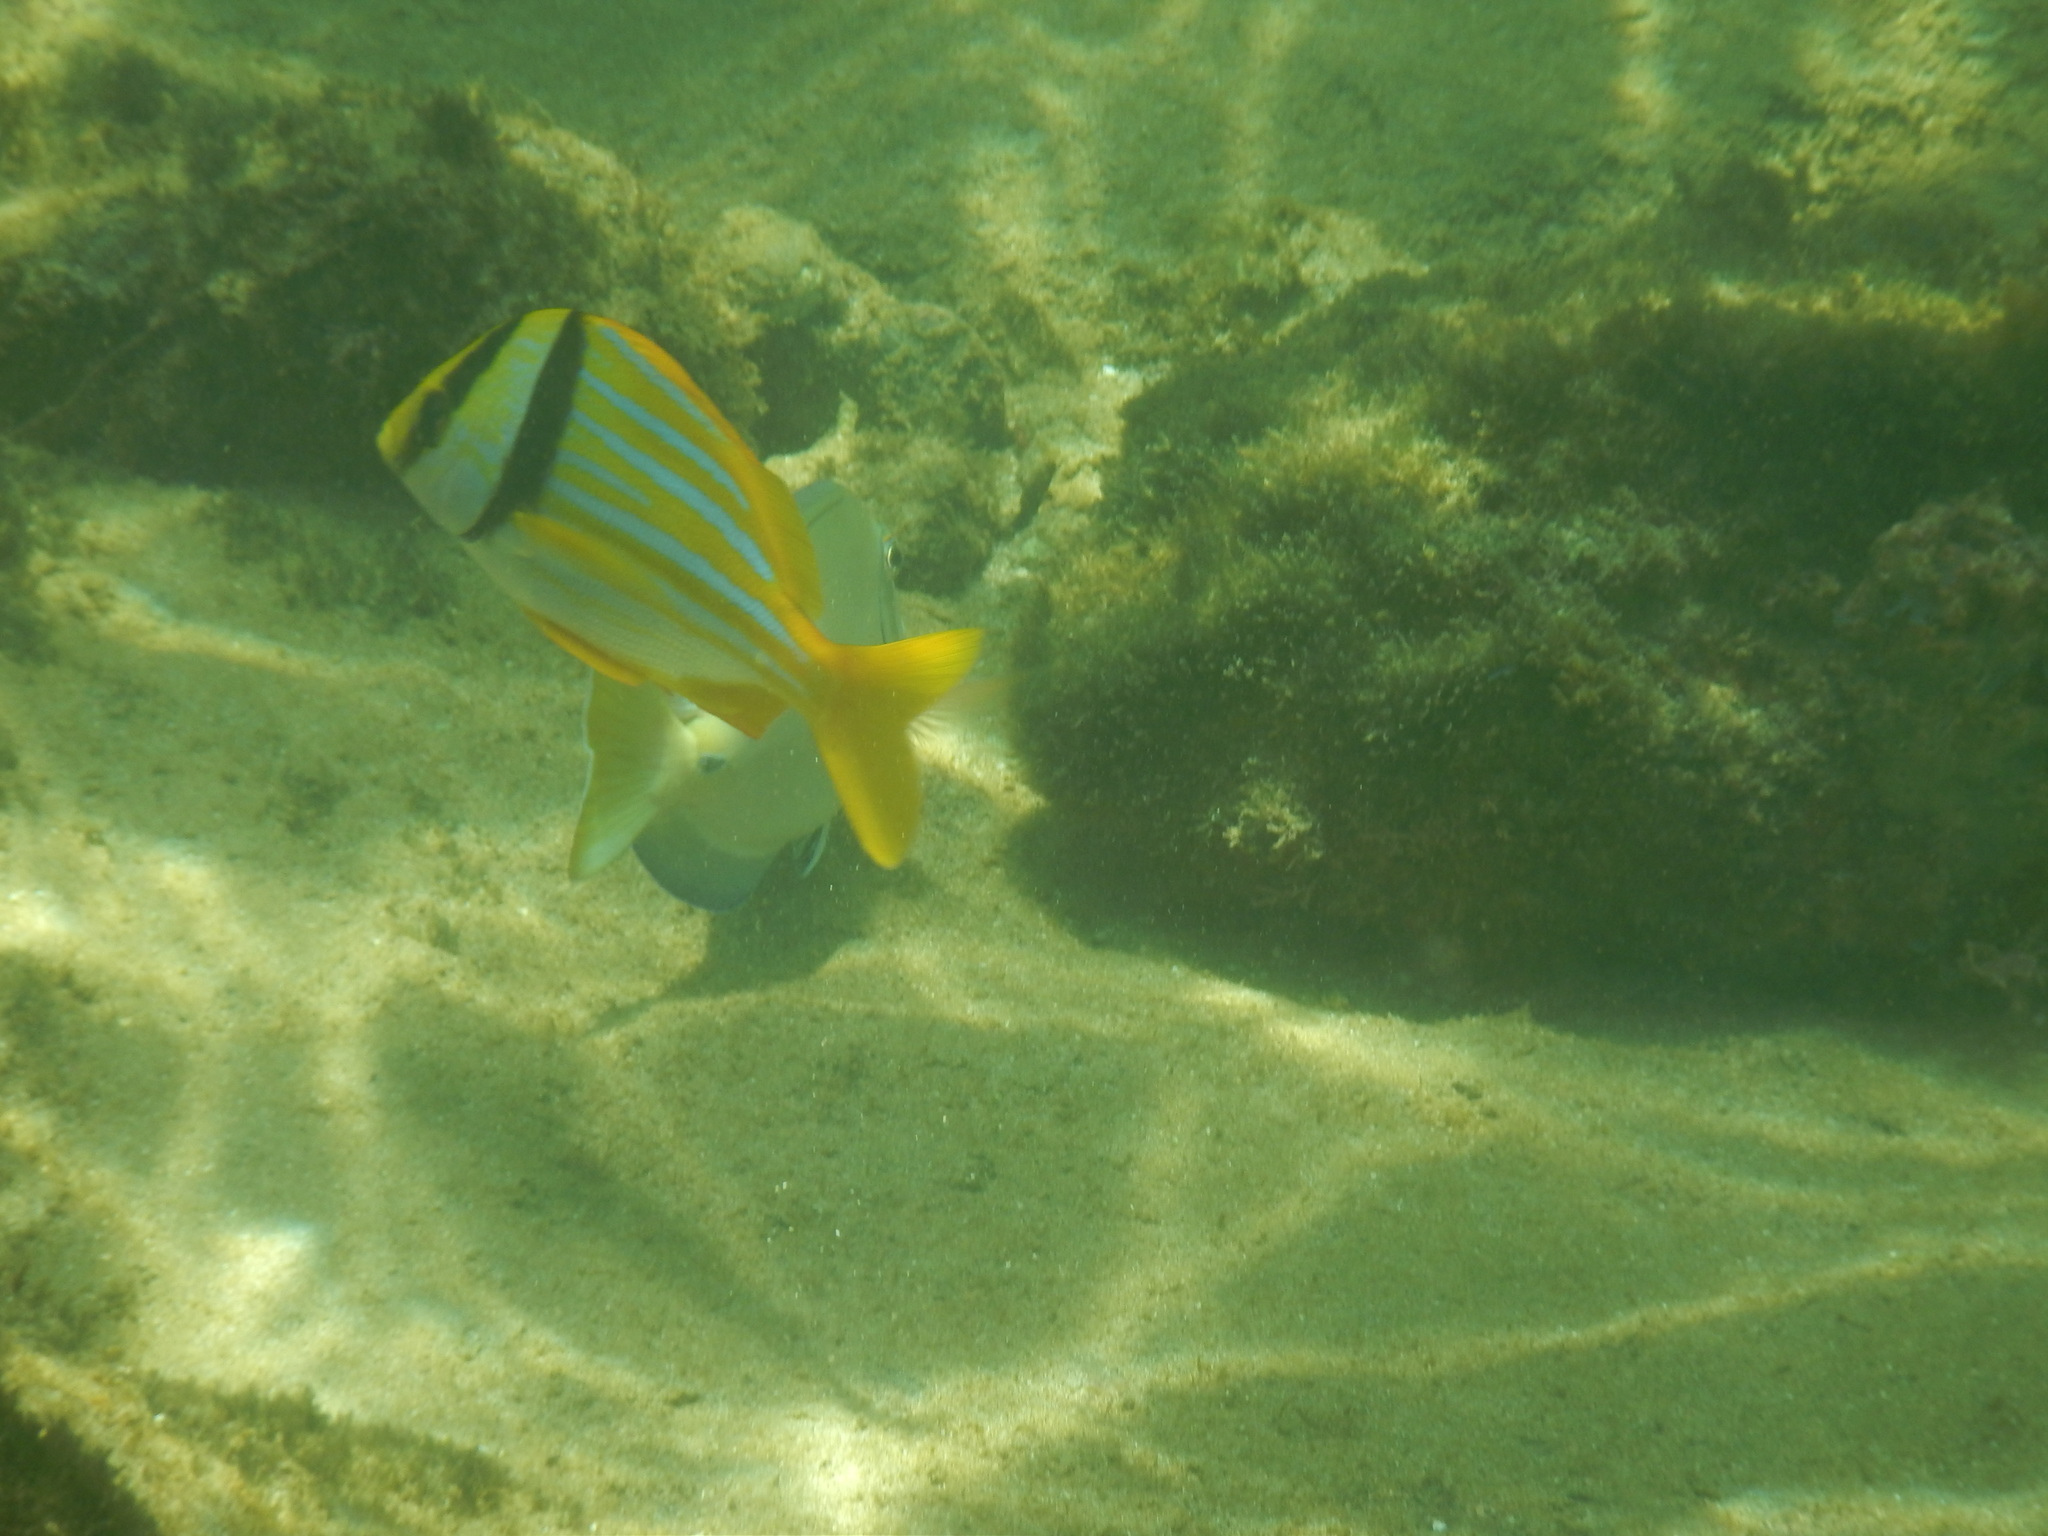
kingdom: Animalia
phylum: Chordata
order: Perciformes
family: Haemulidae
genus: Anisotremus
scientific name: Anisotremus virginicus
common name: Porkfish
